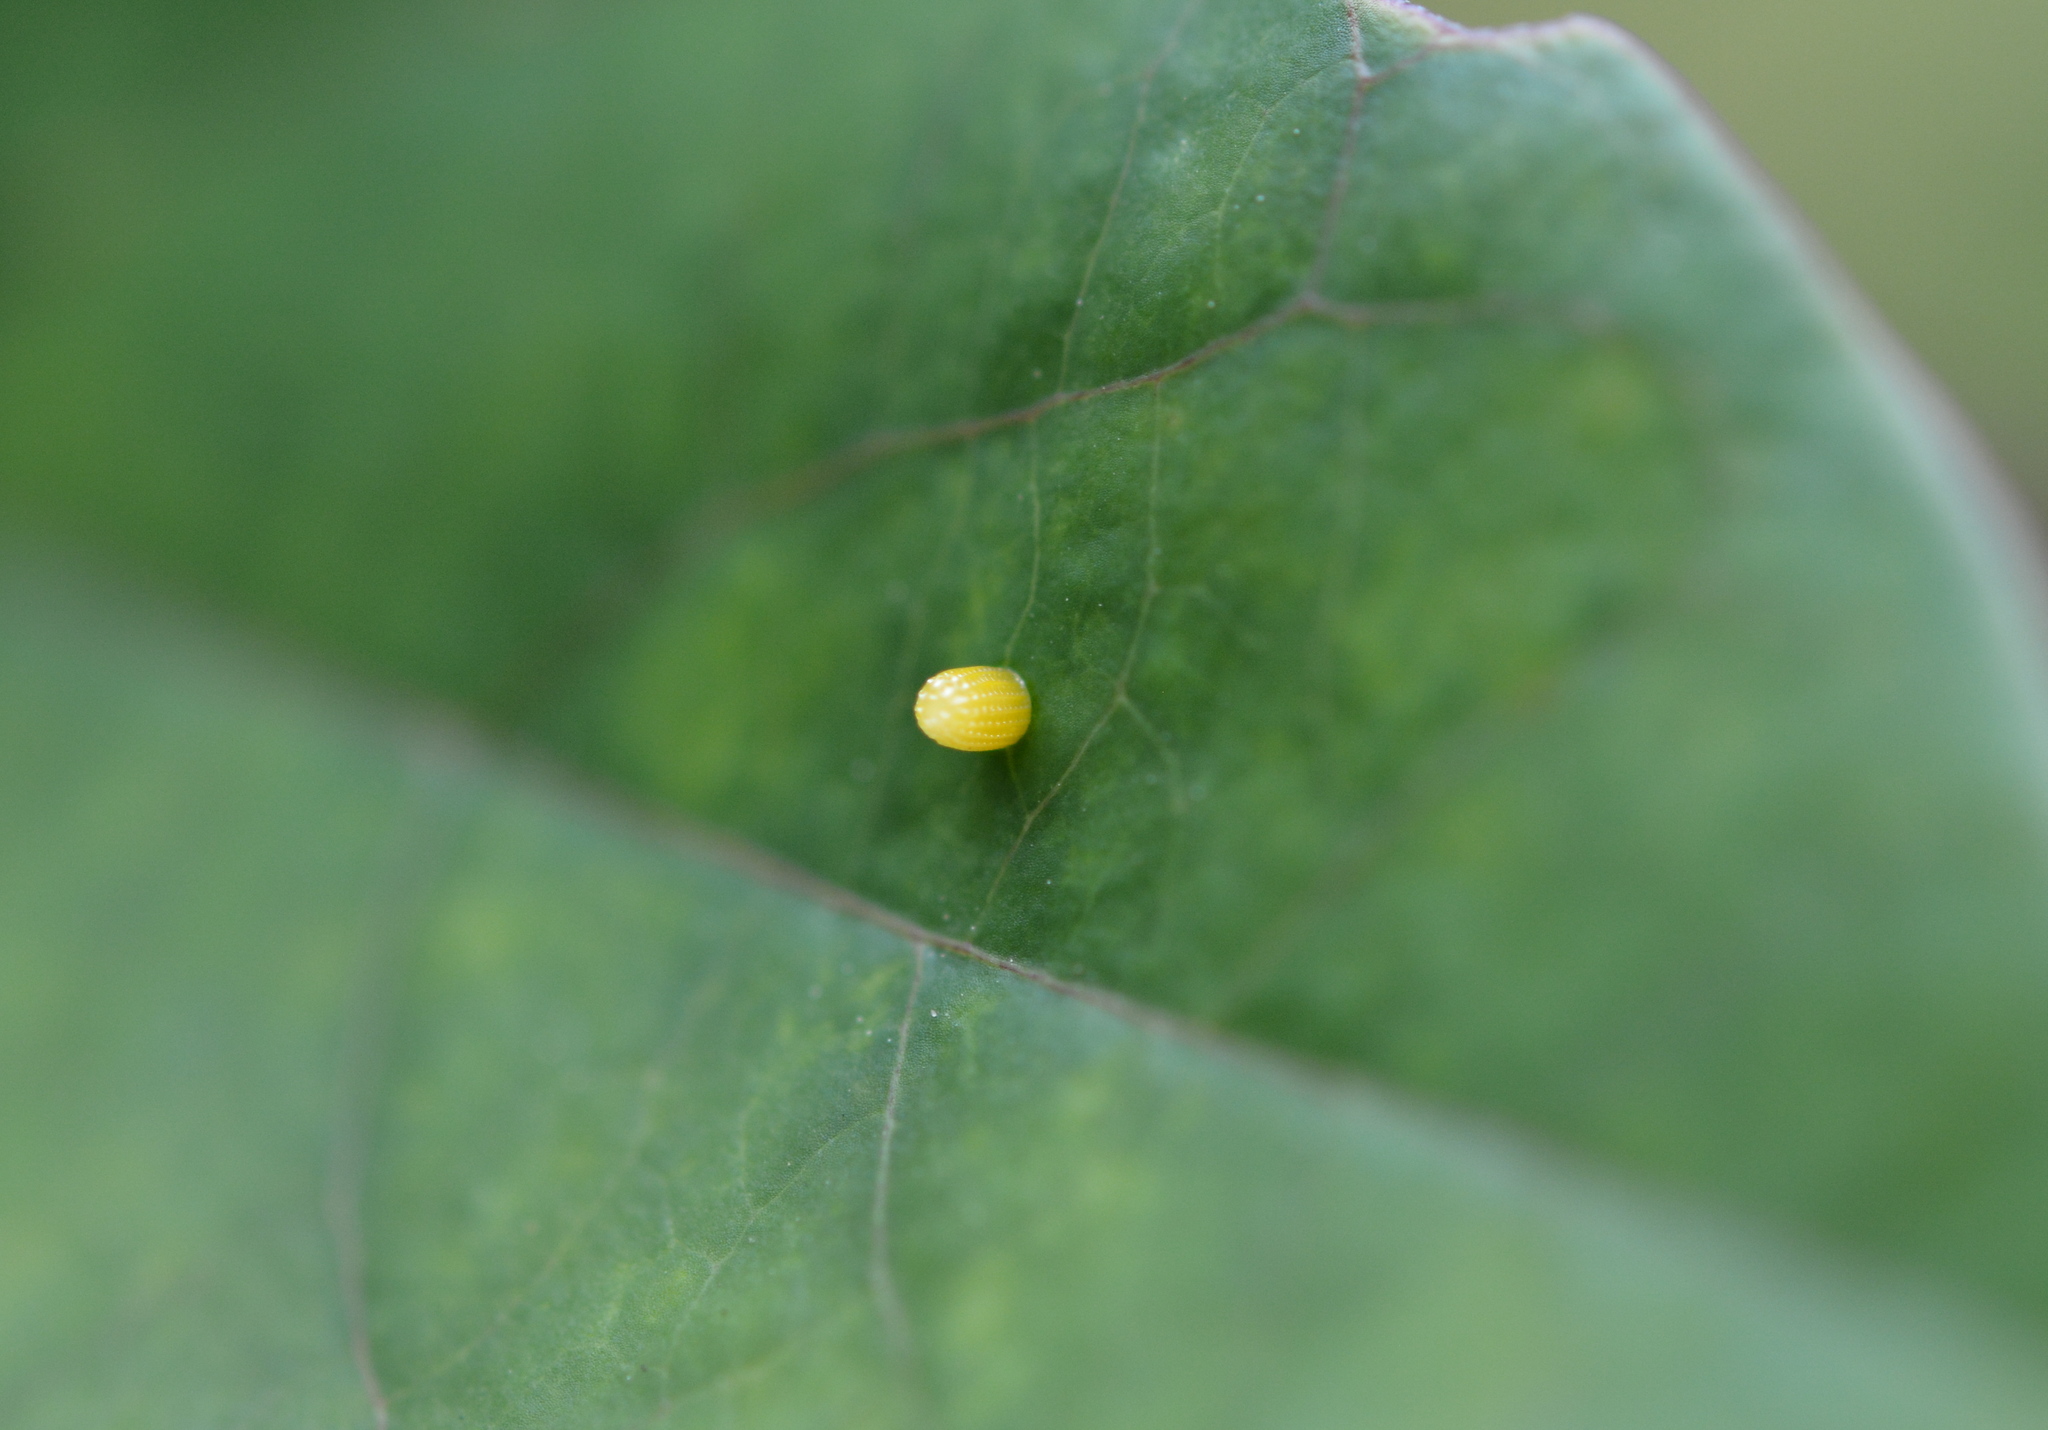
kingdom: Animalia
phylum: Arthropoda
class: Insecta
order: Lepidoptera
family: Nymphalidae
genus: Dione
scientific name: Dione vanillae
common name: Gulf fritillary
